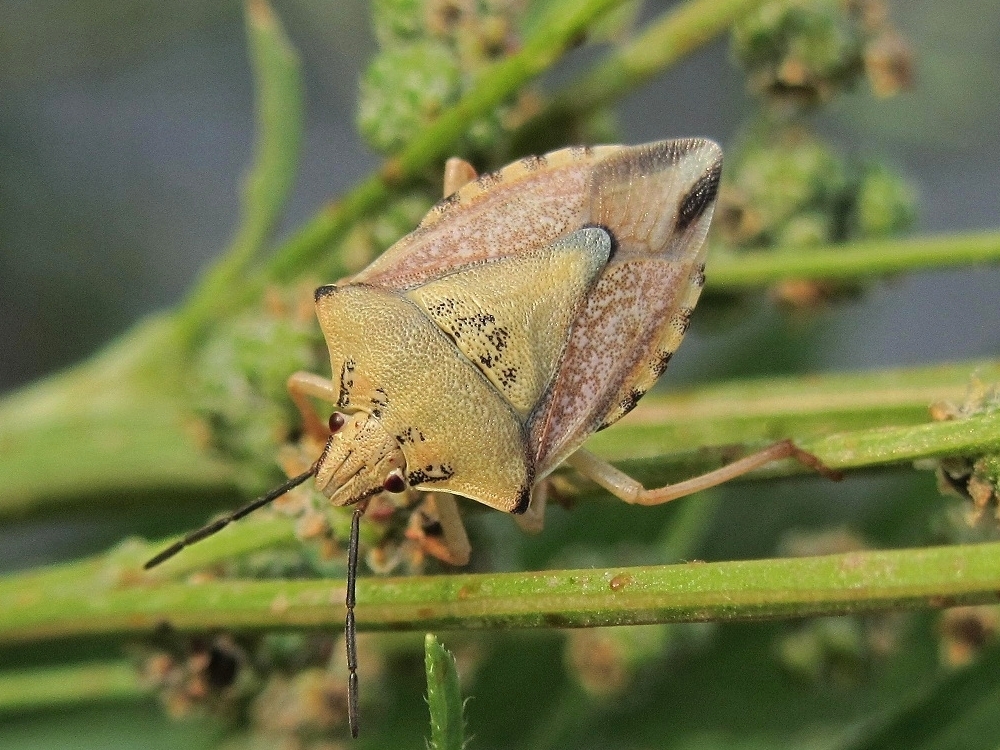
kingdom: Animalia
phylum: Arthropoda
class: Insecta
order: Hemiptera
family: Pentatomidae
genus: Carpocoris
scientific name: Carpocoris coreanus
